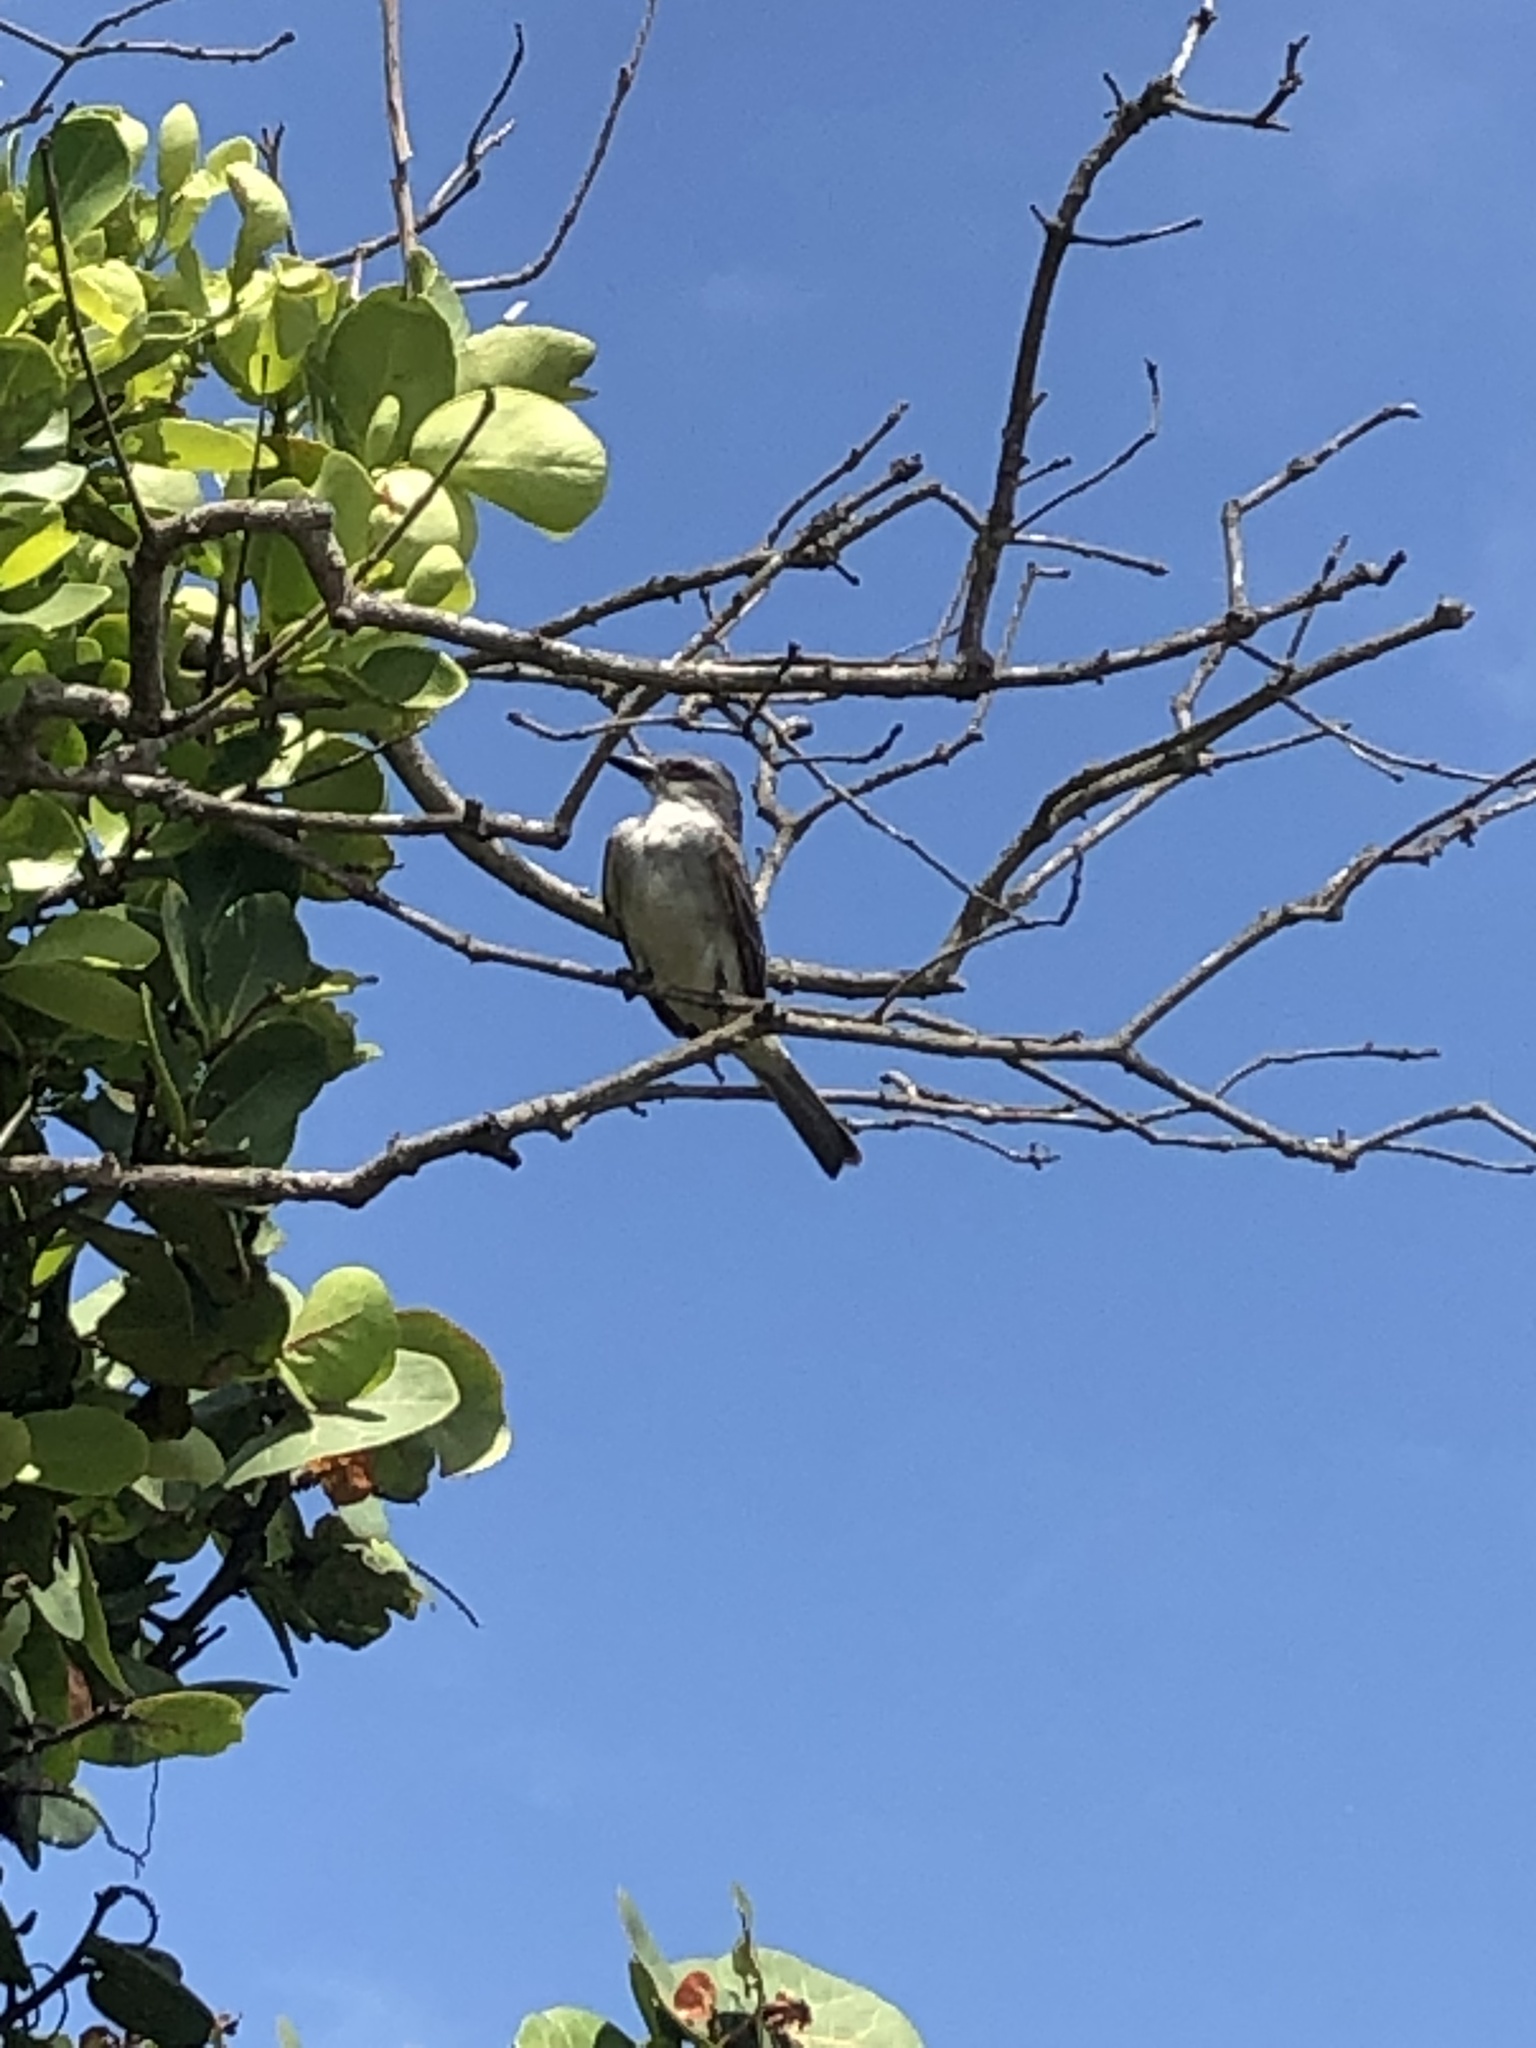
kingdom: Animalia
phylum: Chordata
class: Aves
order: Passeriformes
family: Tyrannidae
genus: Tyrannus
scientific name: Tyrannus dominicensis
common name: Gray kingbird
